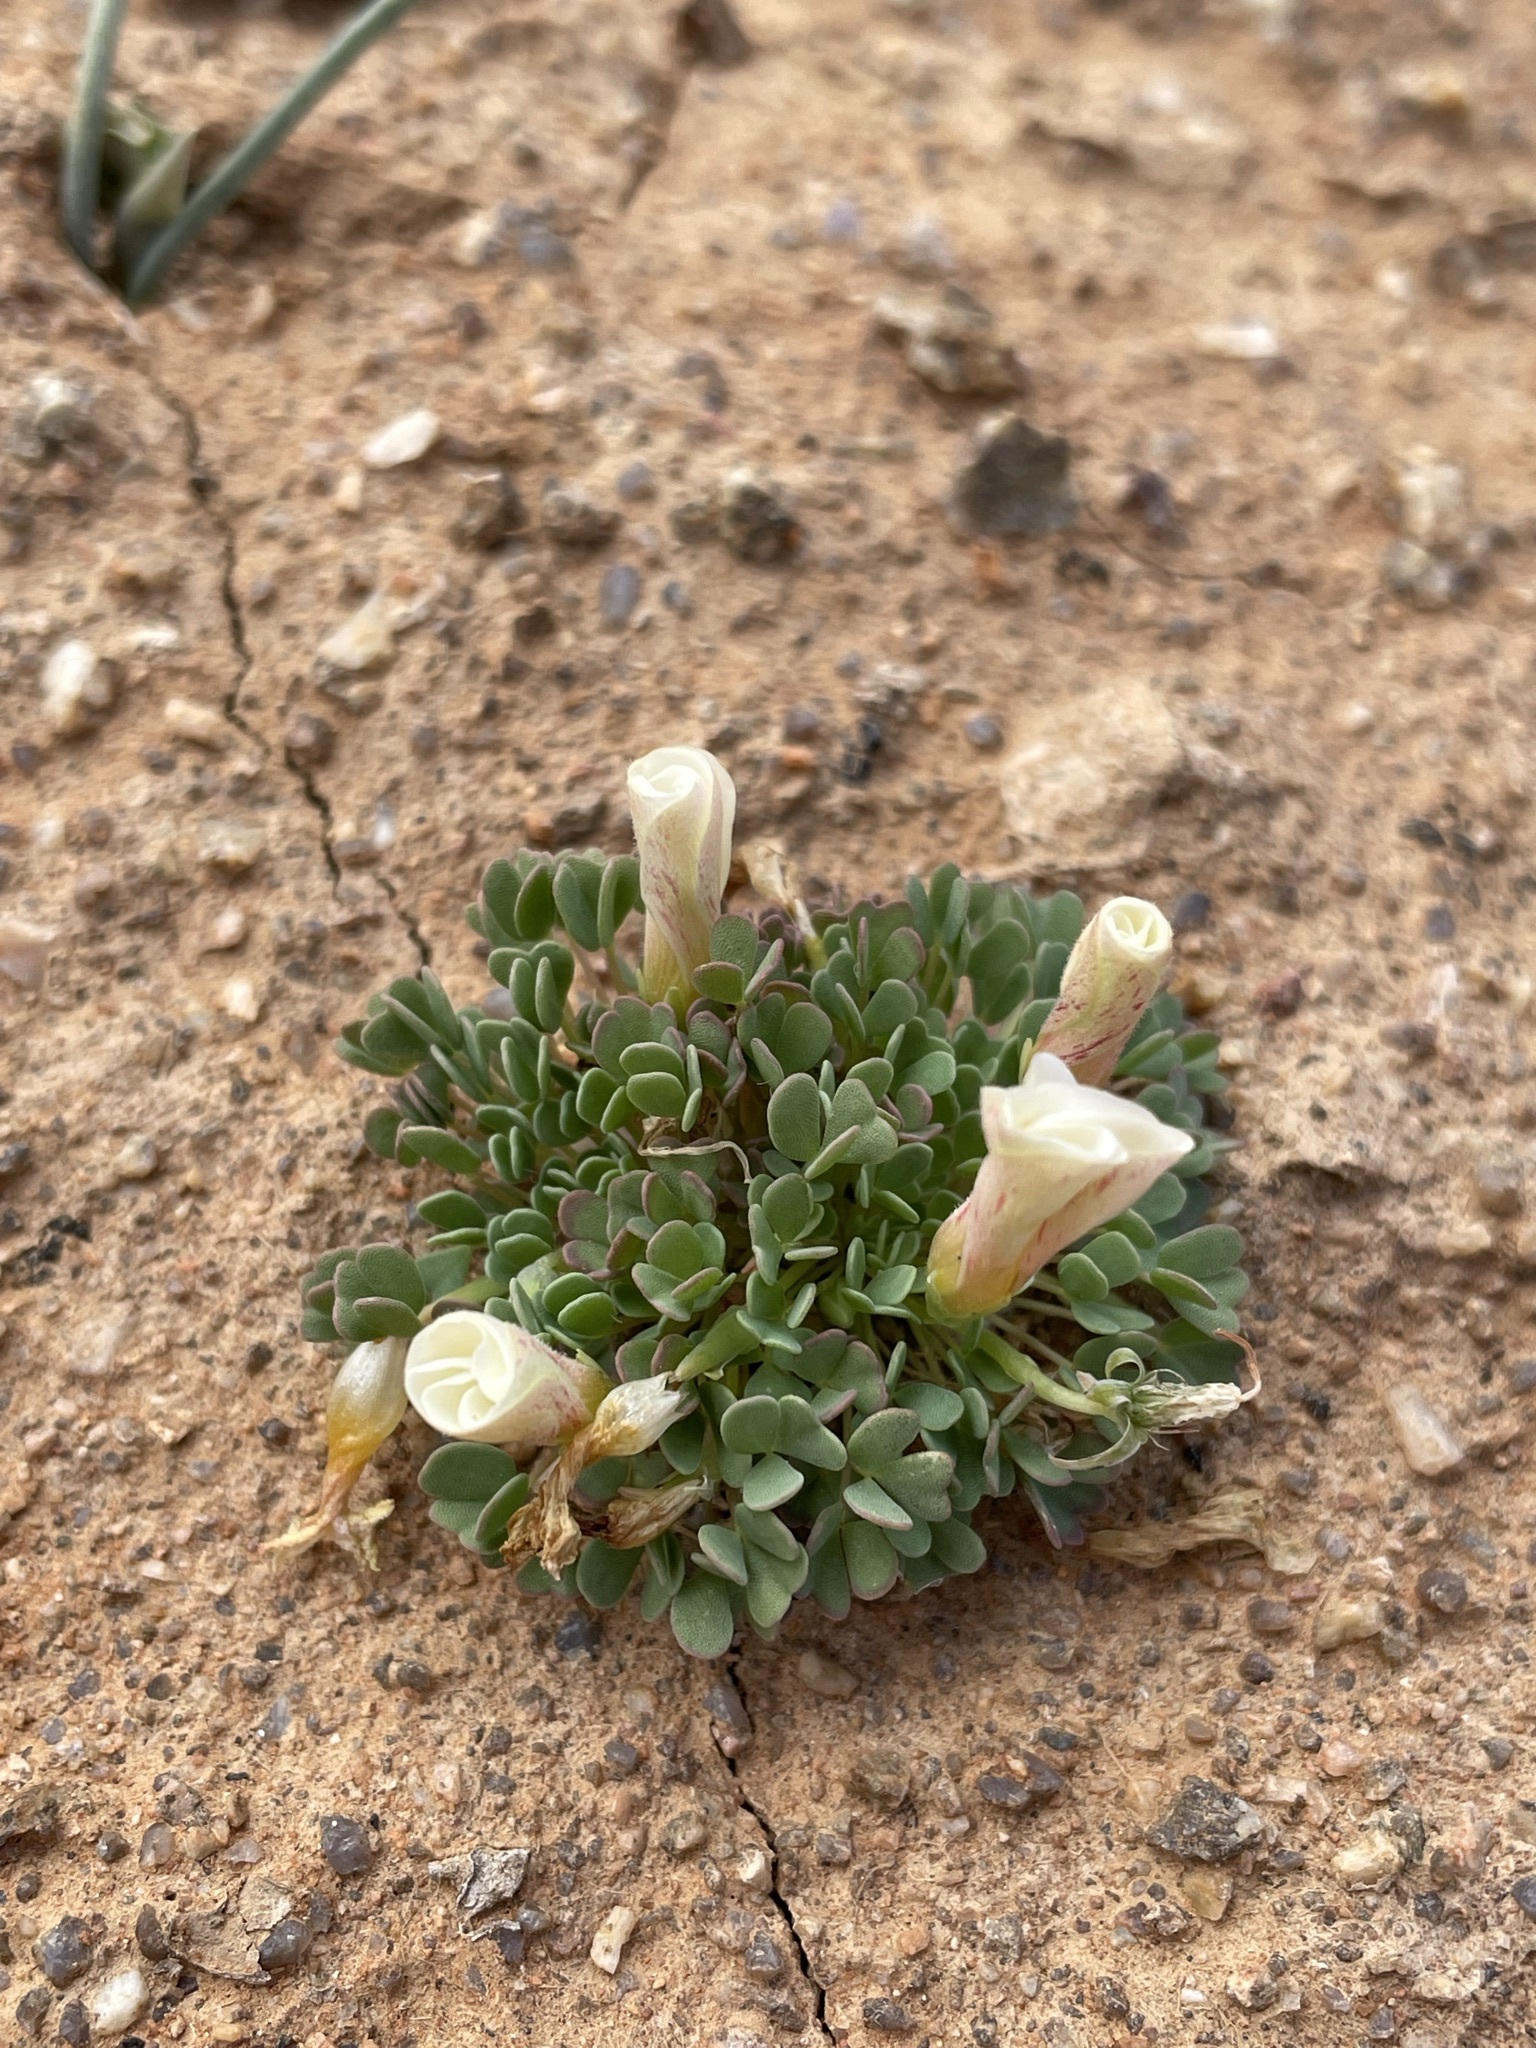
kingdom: Plantae
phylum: Tracheophyta
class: Magnoliopsida
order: Oxalidales
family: Oxalidaceae
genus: Oxalis
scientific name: Oxalis annae
